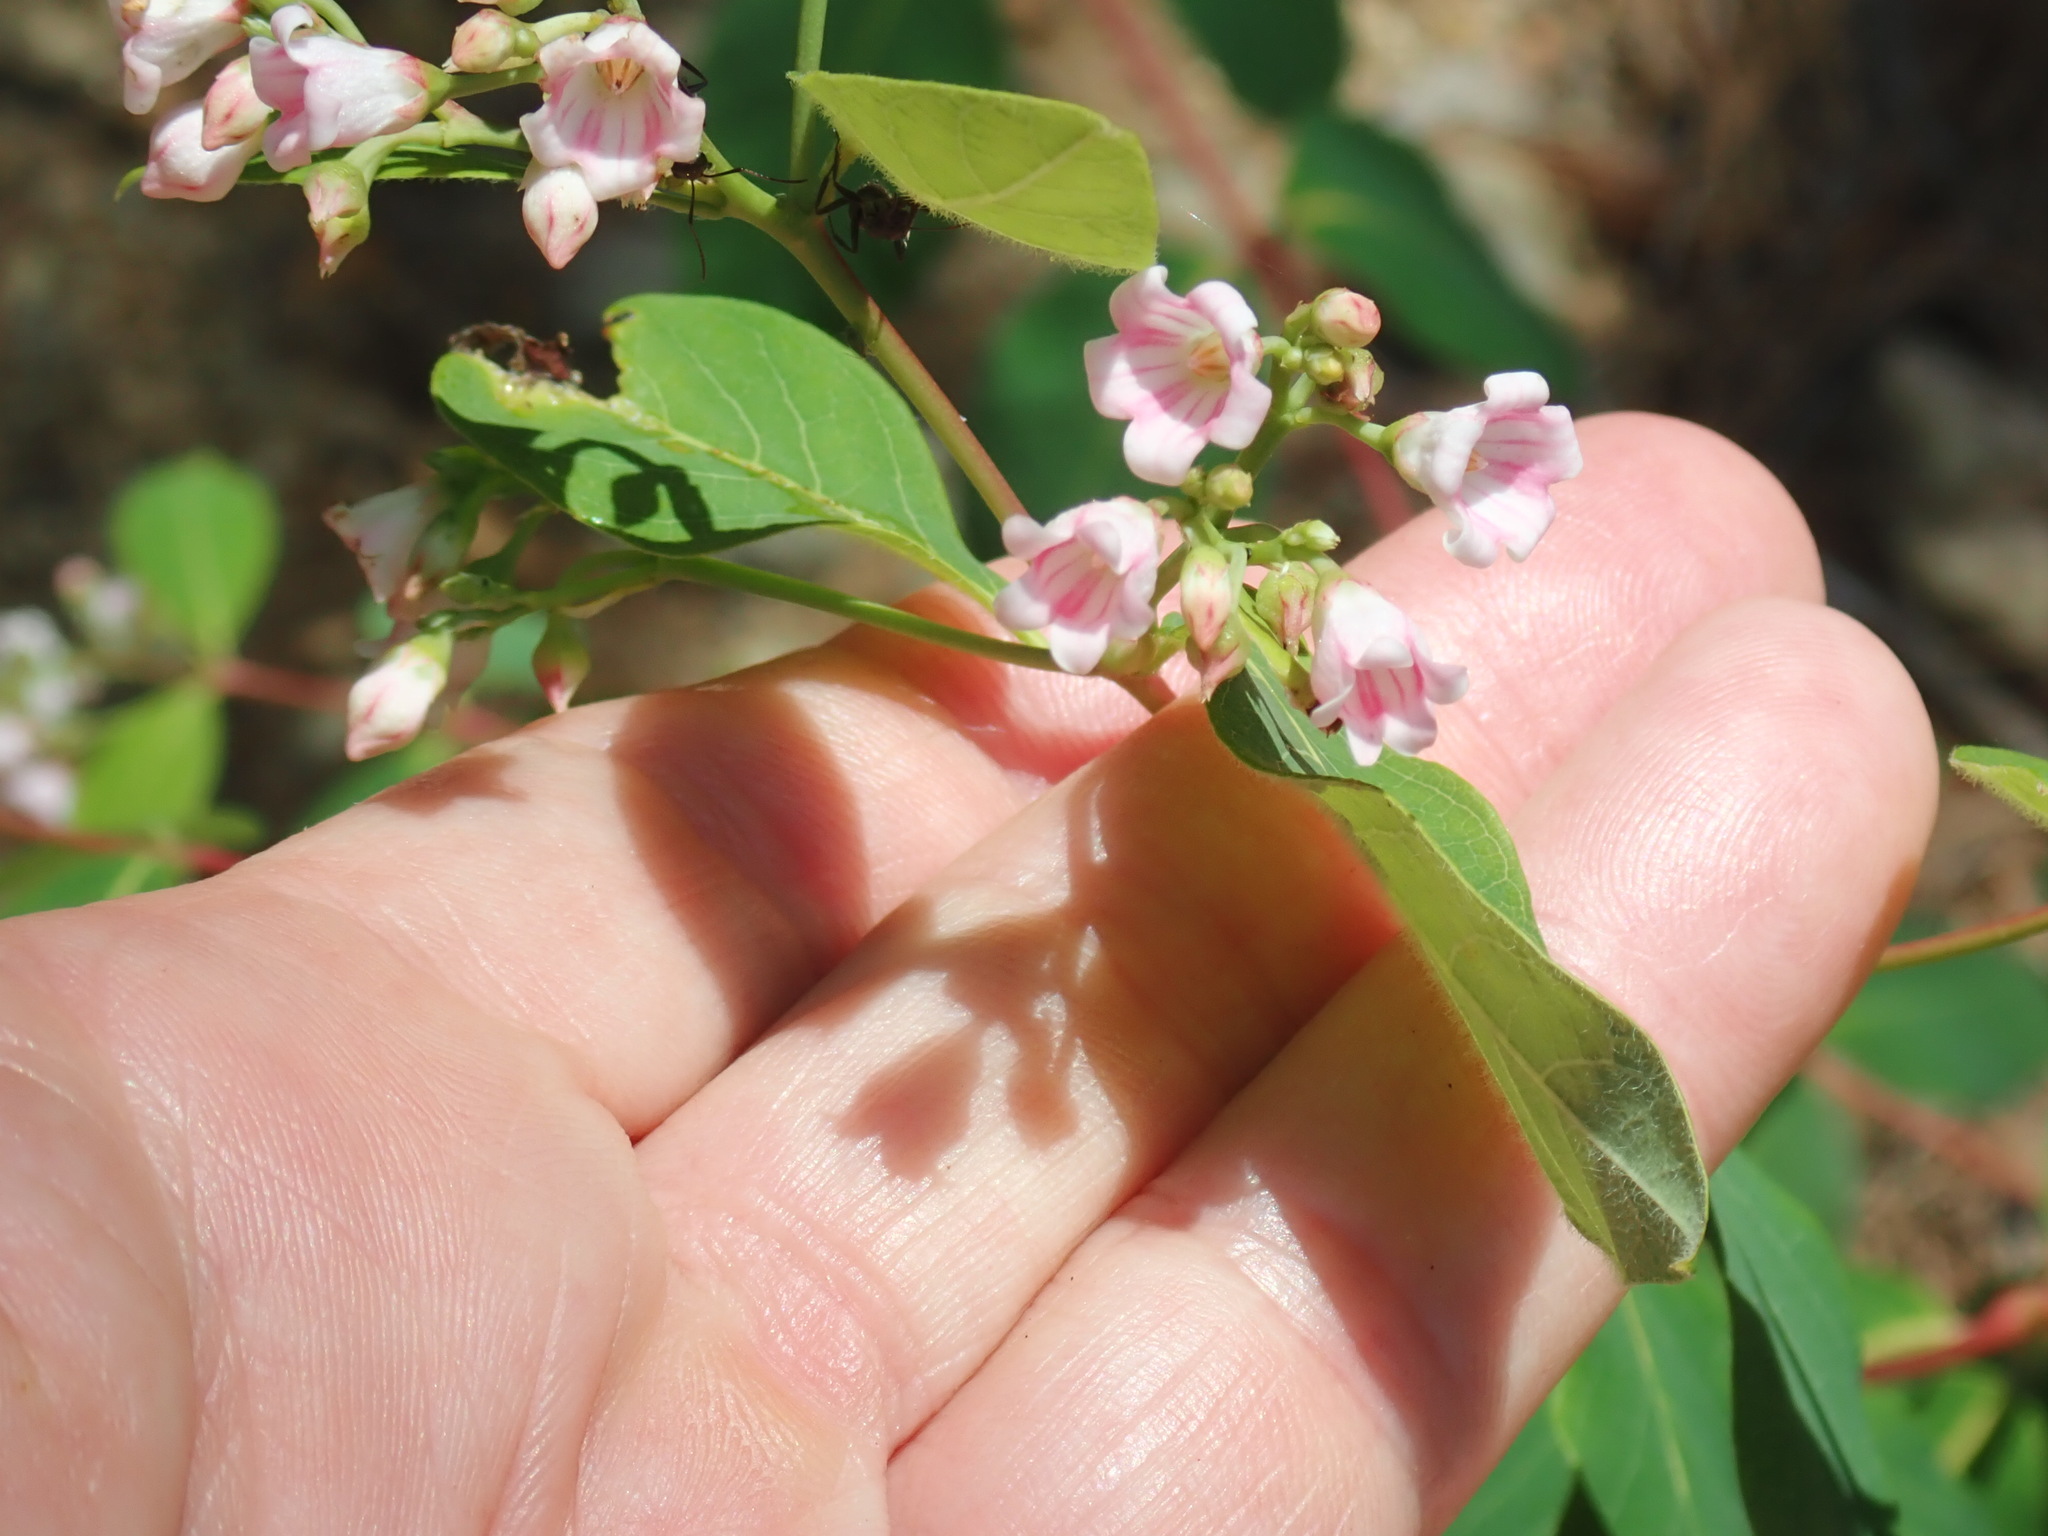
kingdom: Plantae
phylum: Tracheophyta
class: Magnoliopsida
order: Gentianales
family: Apocynaceae
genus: Apocynum
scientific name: Apocynum androsaemifolium
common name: Spreading dogbane
